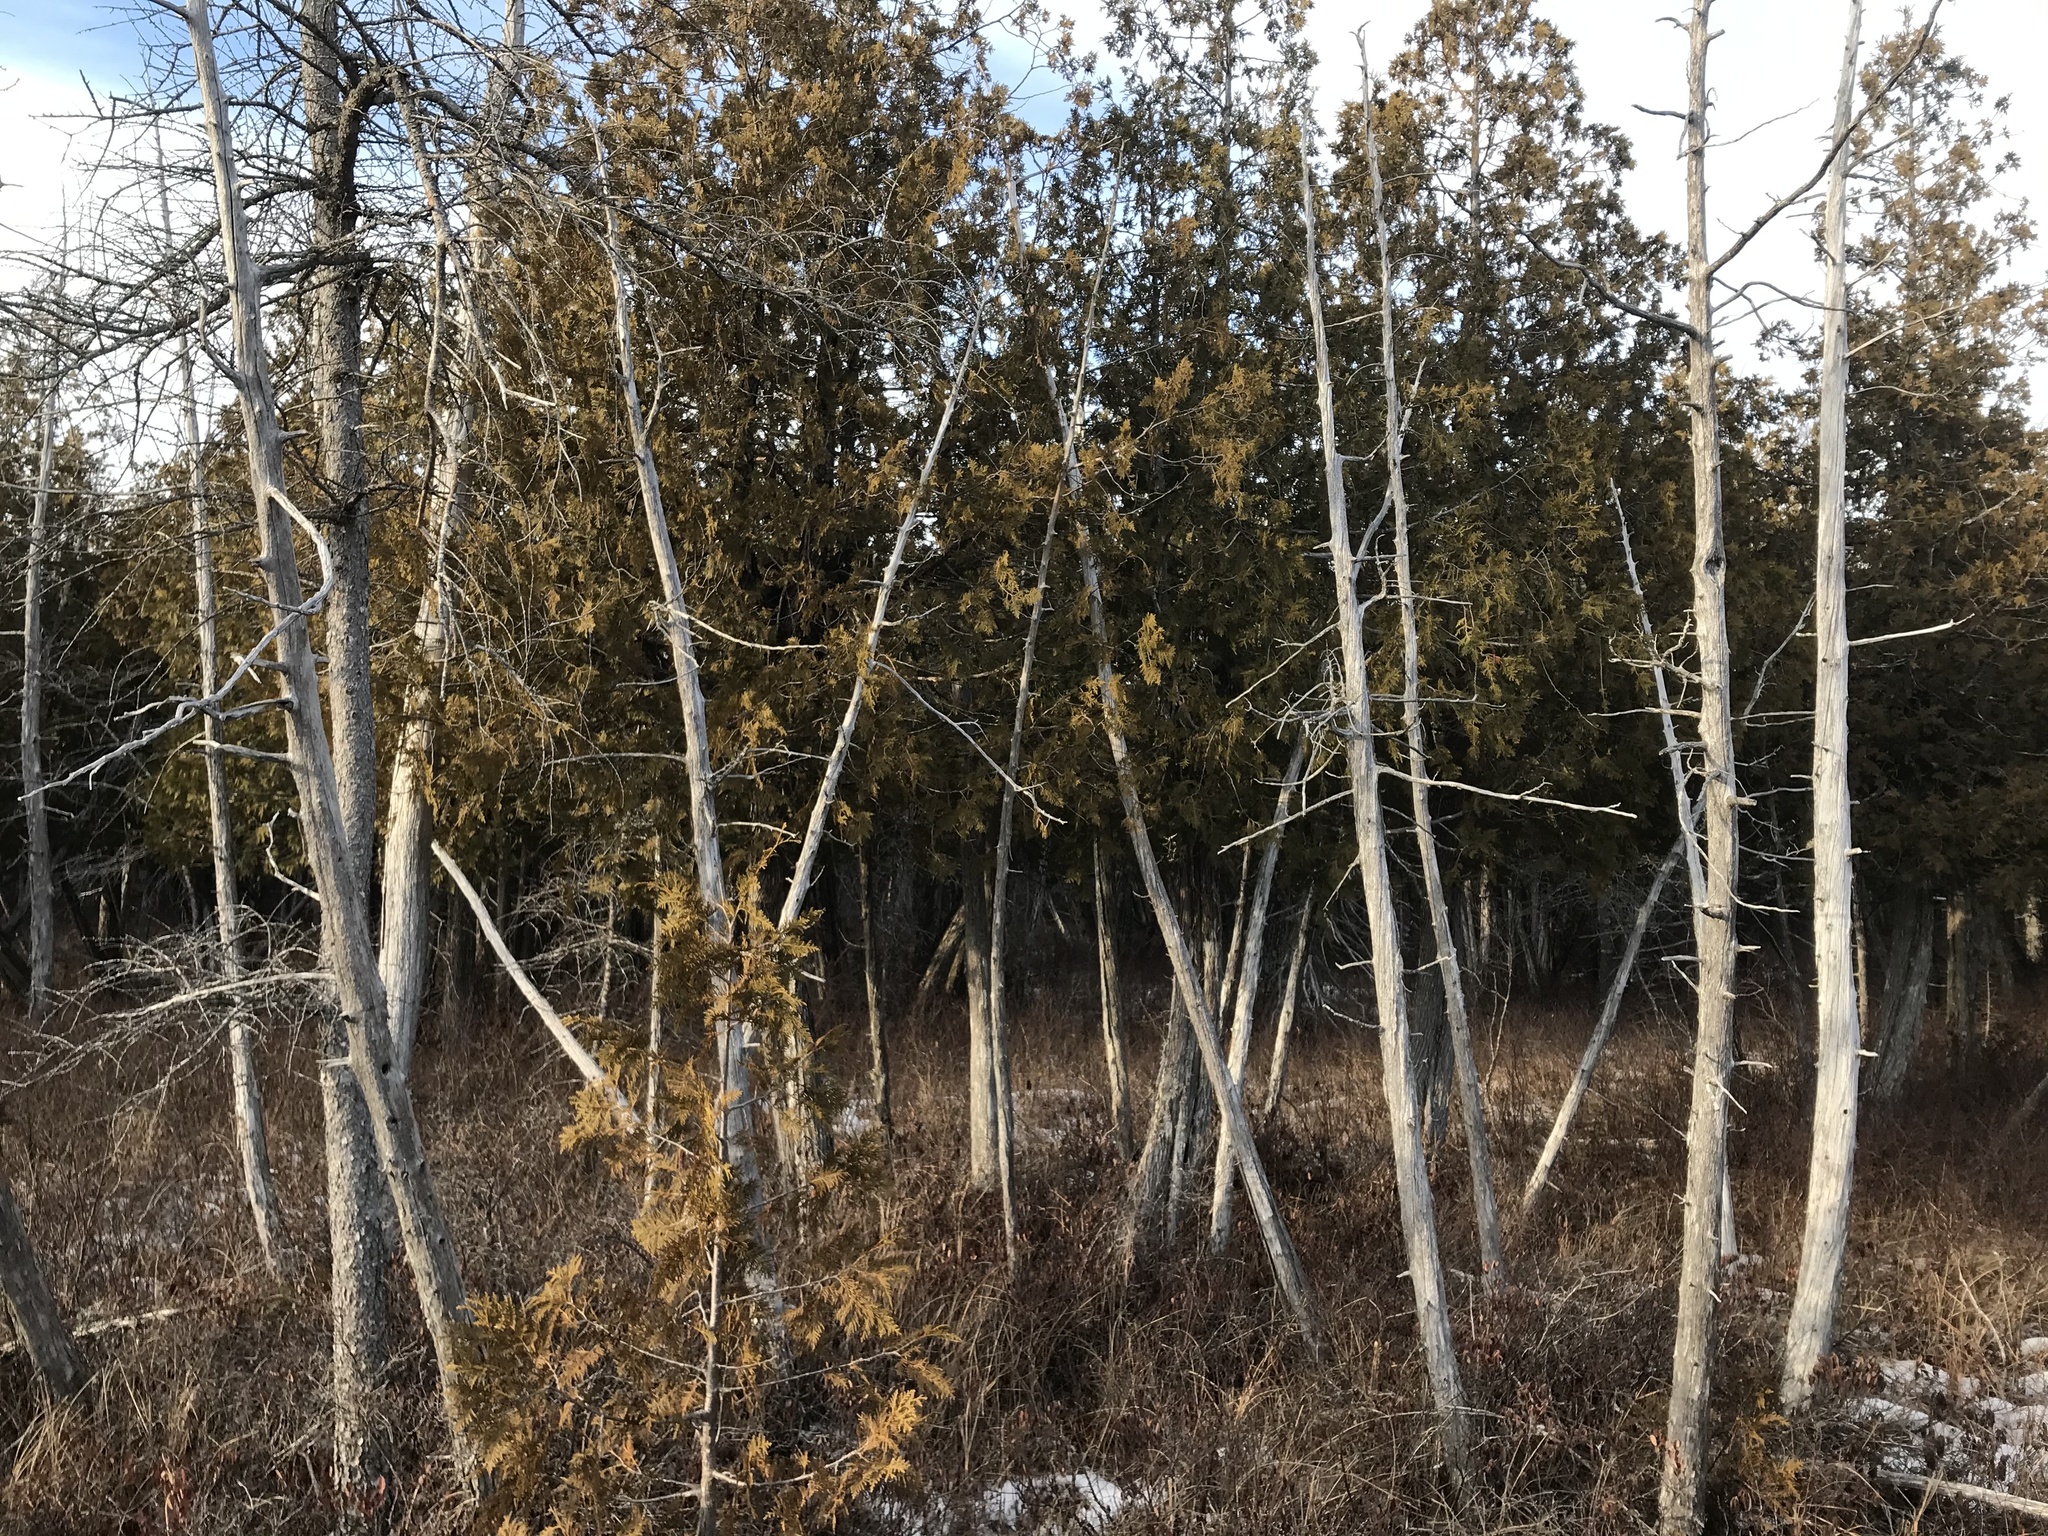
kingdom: Plantae
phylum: Tracheophyta
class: Pinopsida
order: Pinales
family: Cupressaceae
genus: Thuja
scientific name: Thuja occidentalis
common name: Northern white-cedar
